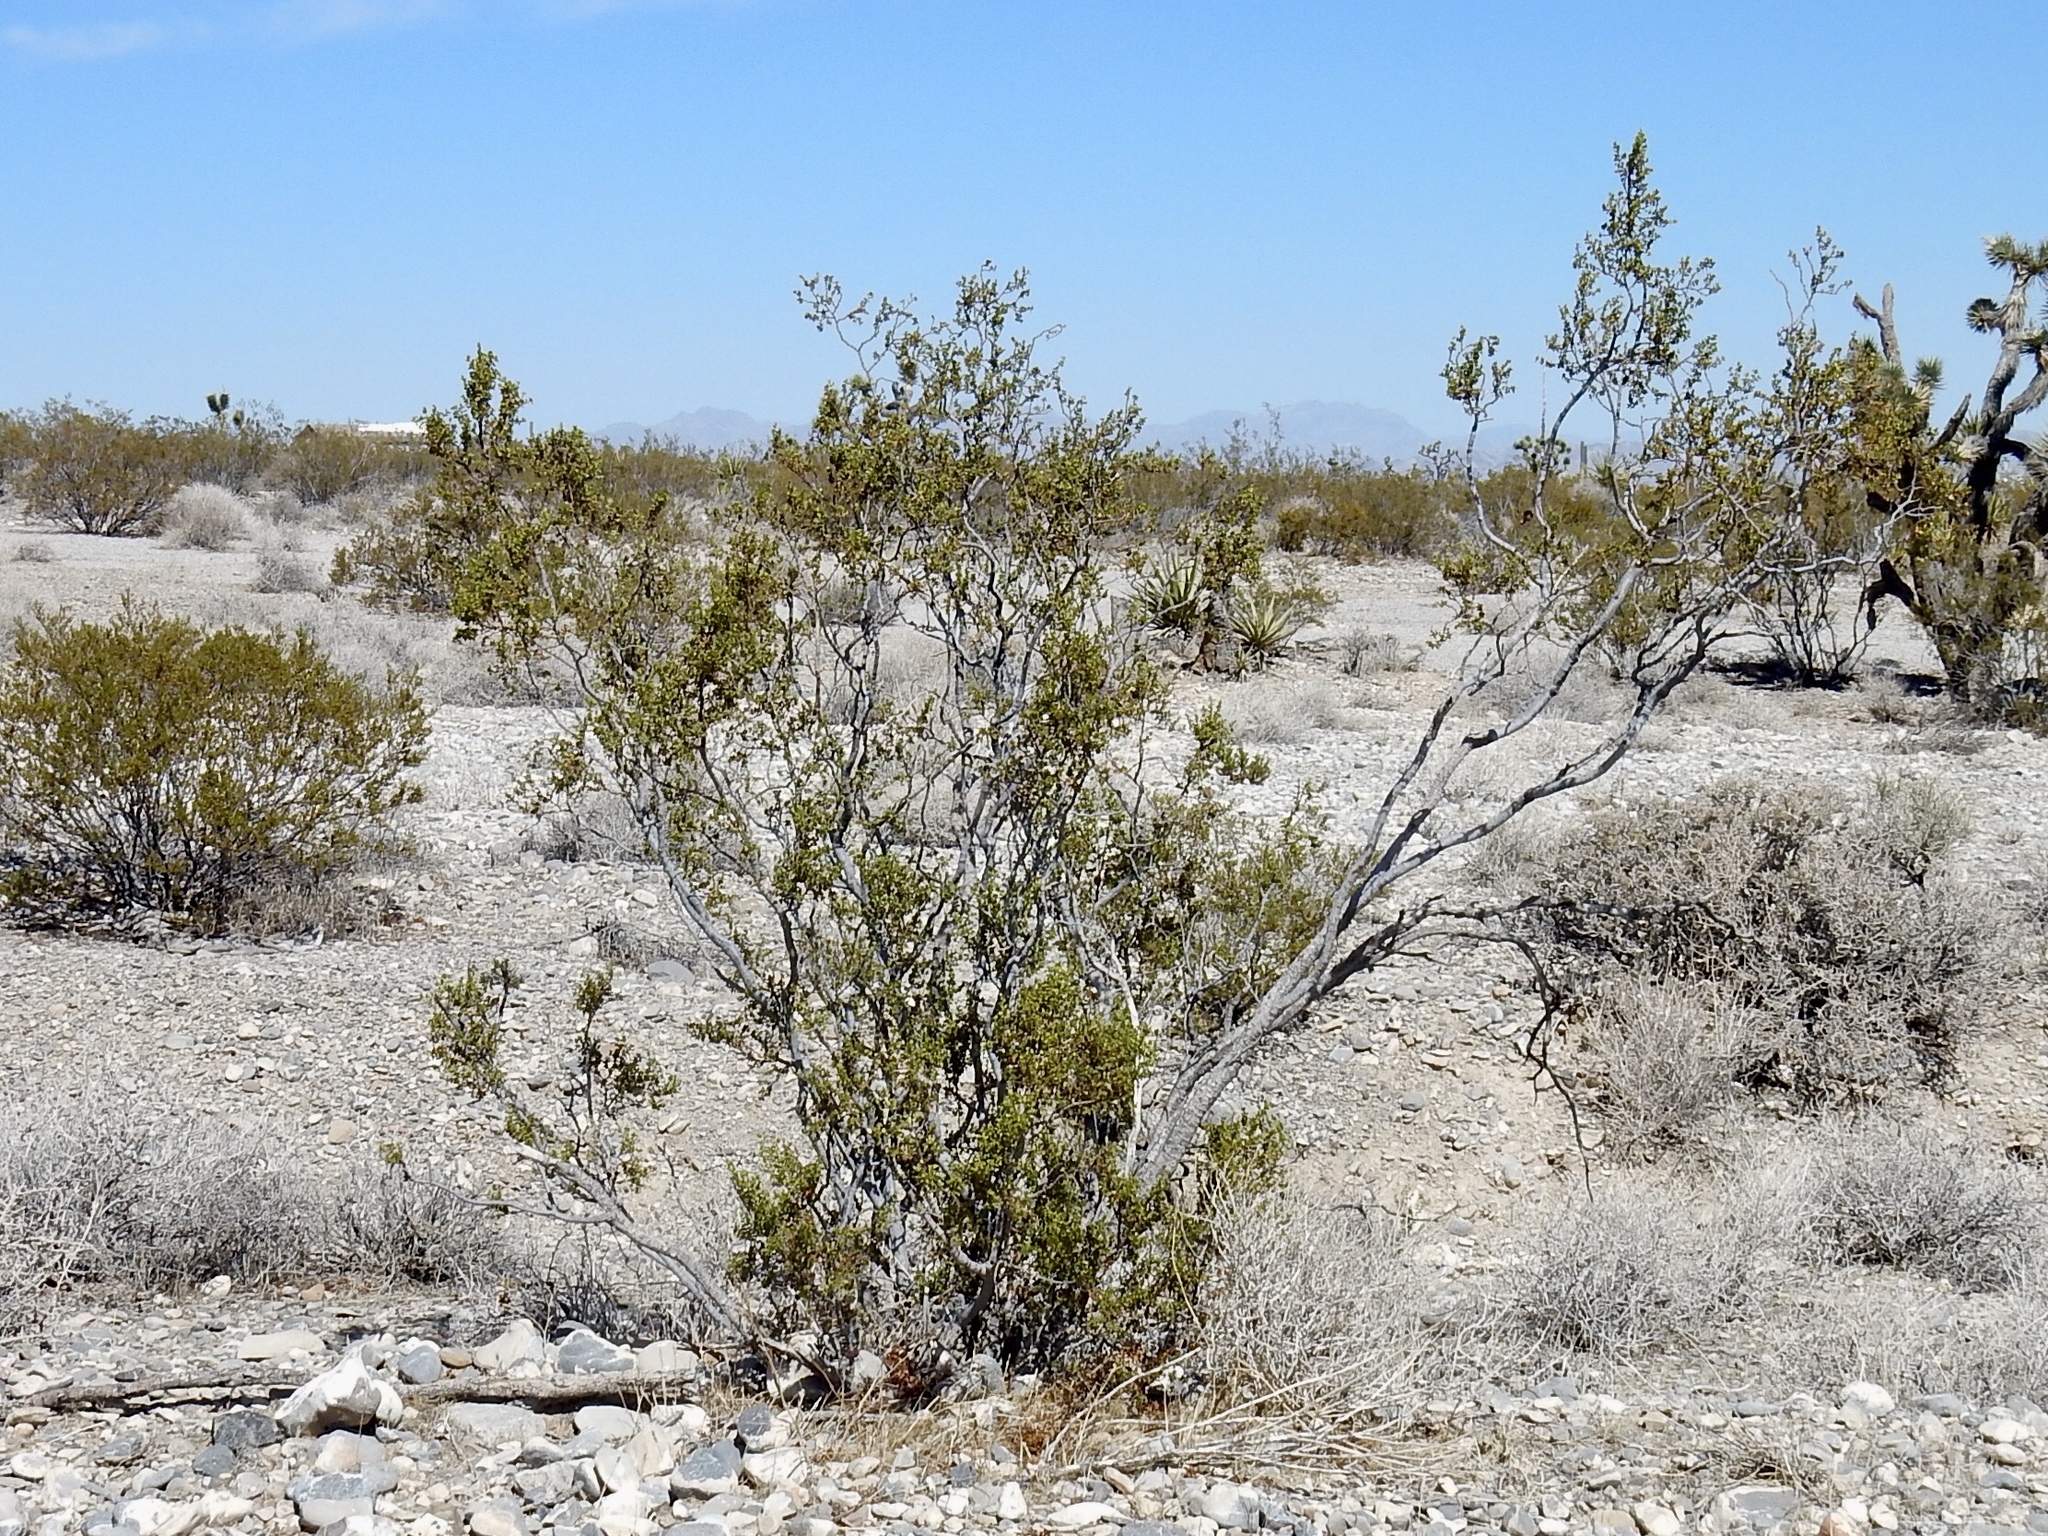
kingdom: Plantae
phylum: Tracheophyta
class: Magnoliopsida
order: Zygophyllales
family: Zygophyllaceae
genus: Larrea
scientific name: Larrea tridentata
